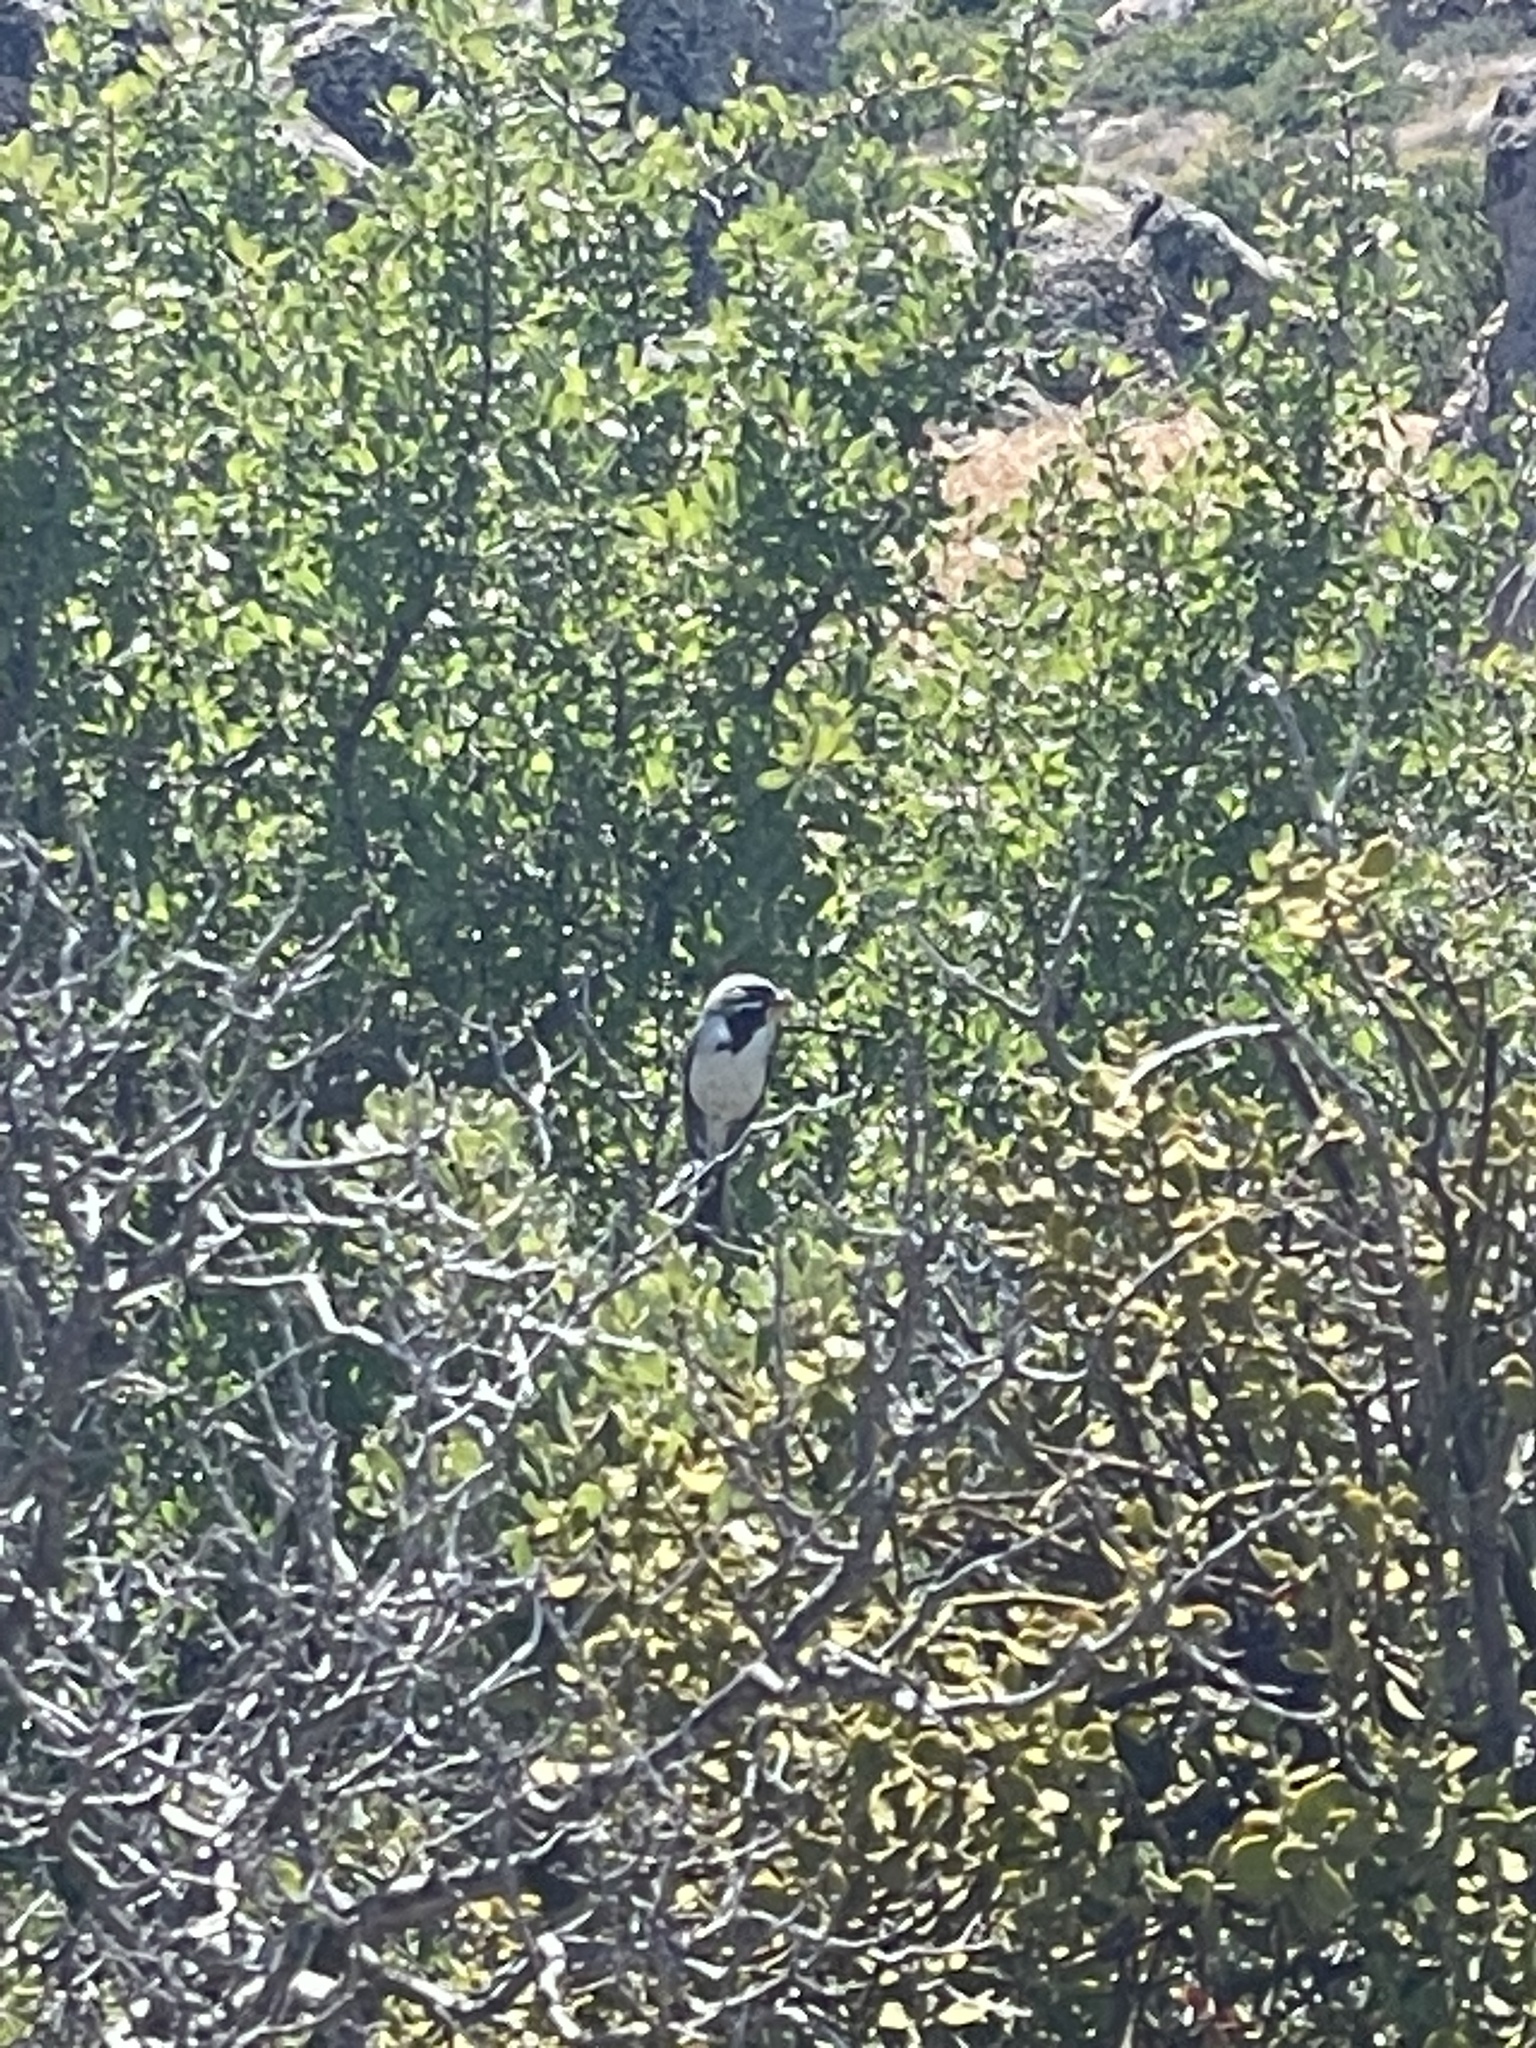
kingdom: Animalia
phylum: Chordata
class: Aves
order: Passeriformes
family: Passerellidae
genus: Amphispiza
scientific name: Amphispiza bilineata
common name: Black-throated sparrow
